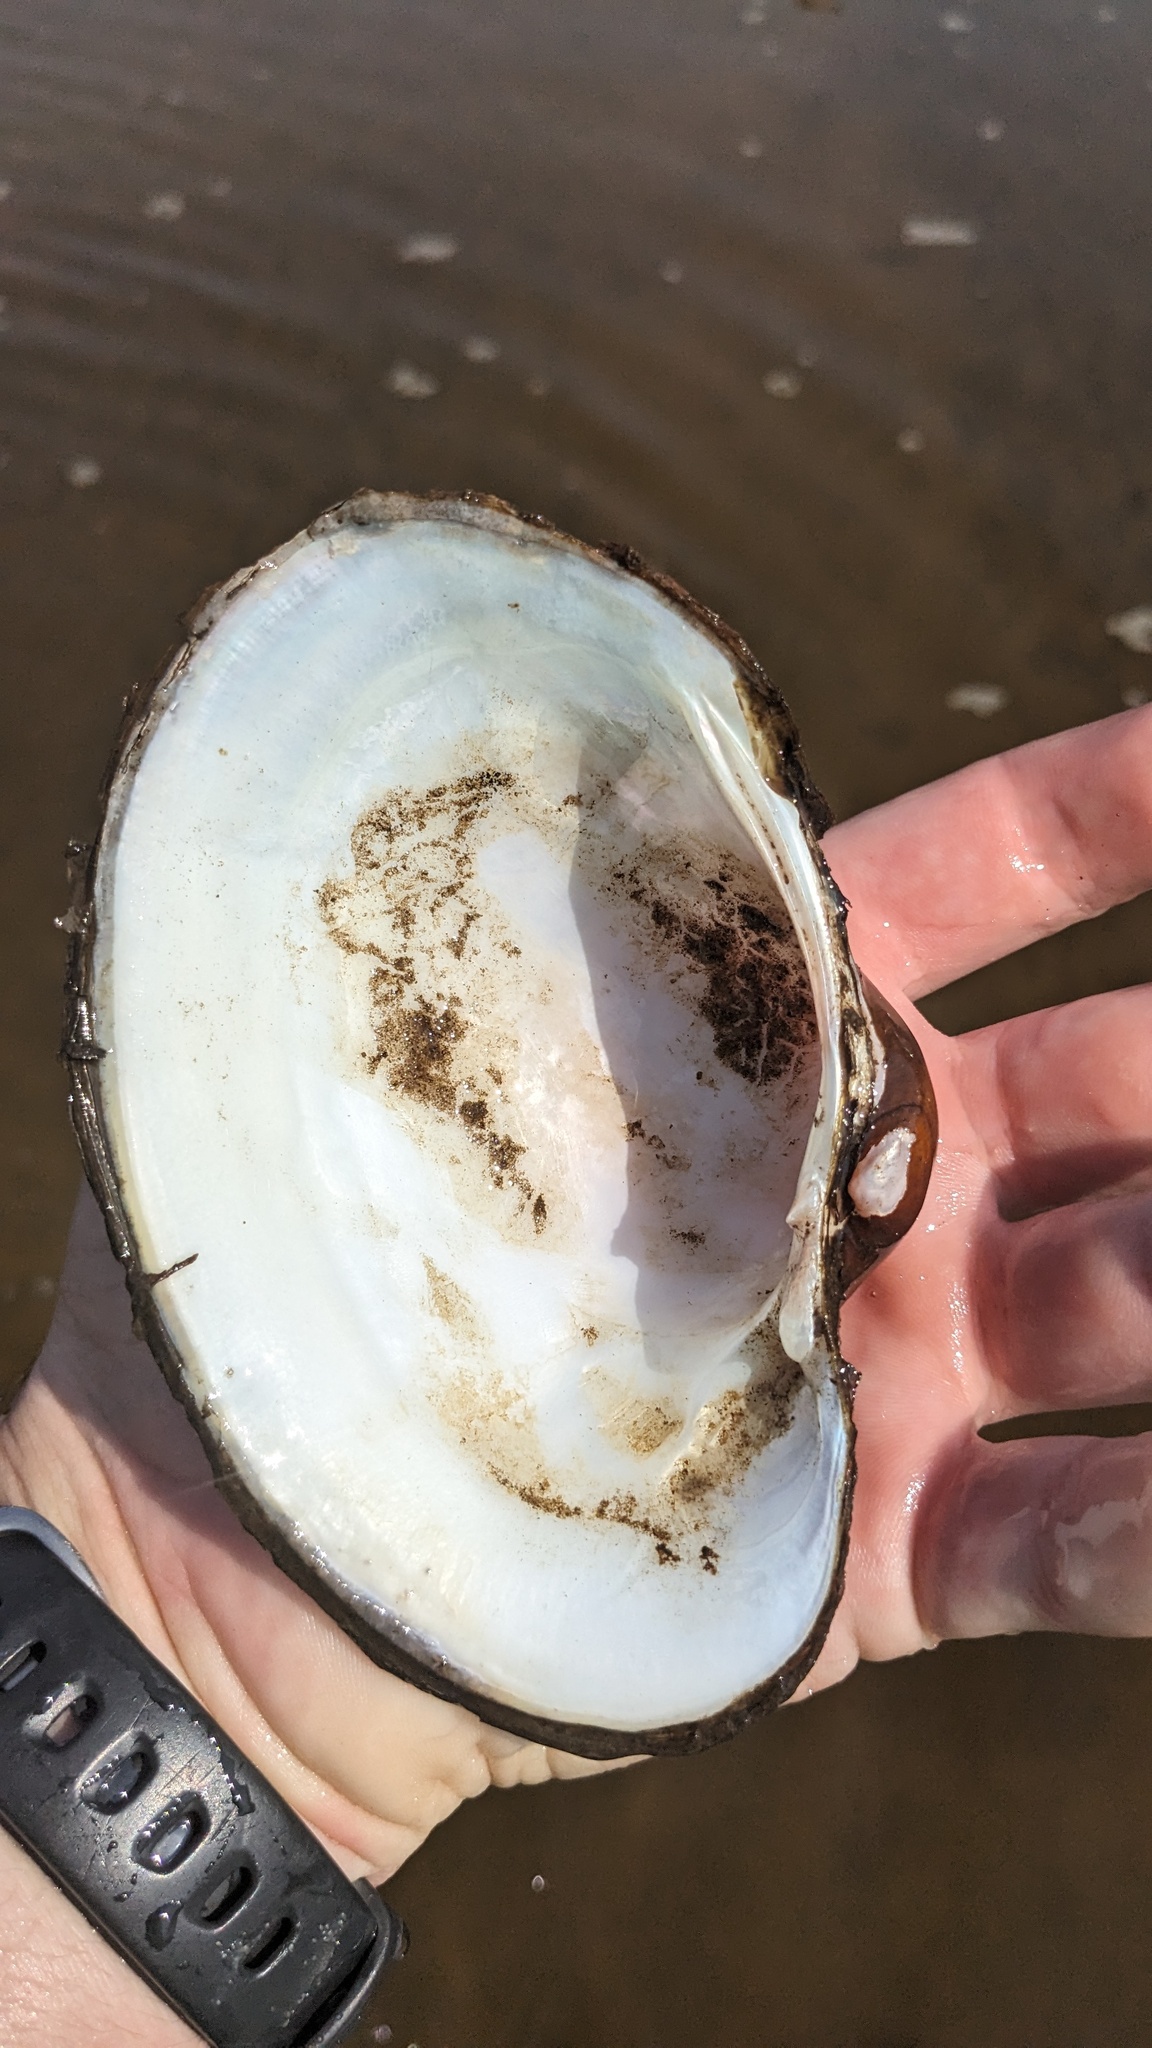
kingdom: Animalia
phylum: Mollusca
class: Bivalvia
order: Unionida
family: Unionidae
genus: Lampsilis
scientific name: Lampsilis cardium
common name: Plain pocketbook
